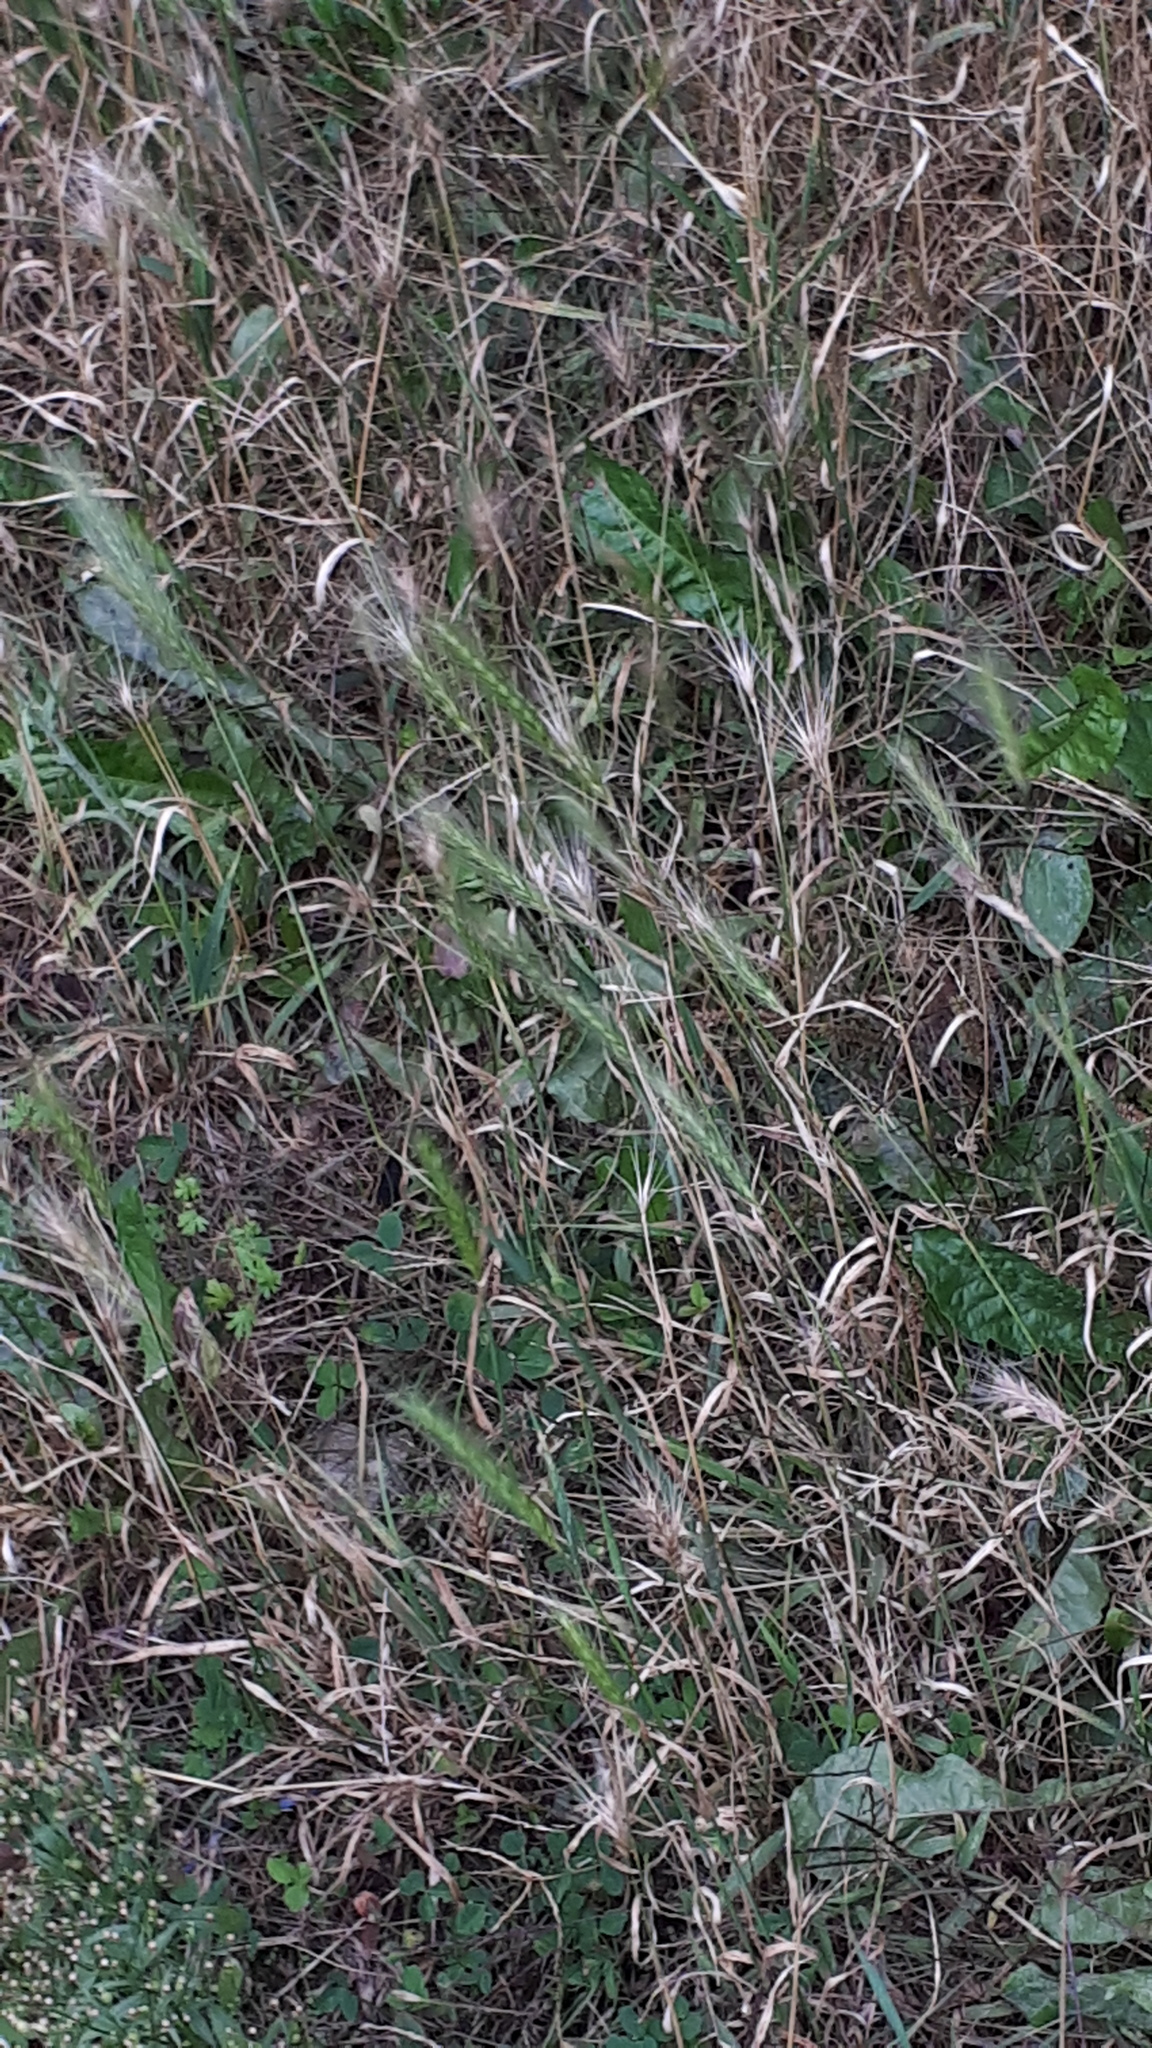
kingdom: Plantae
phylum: Tracheophyta
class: Liliopsida
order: Poales
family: Poaceae
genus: Hordeum
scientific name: Hordeum murinum
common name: Wall barley
